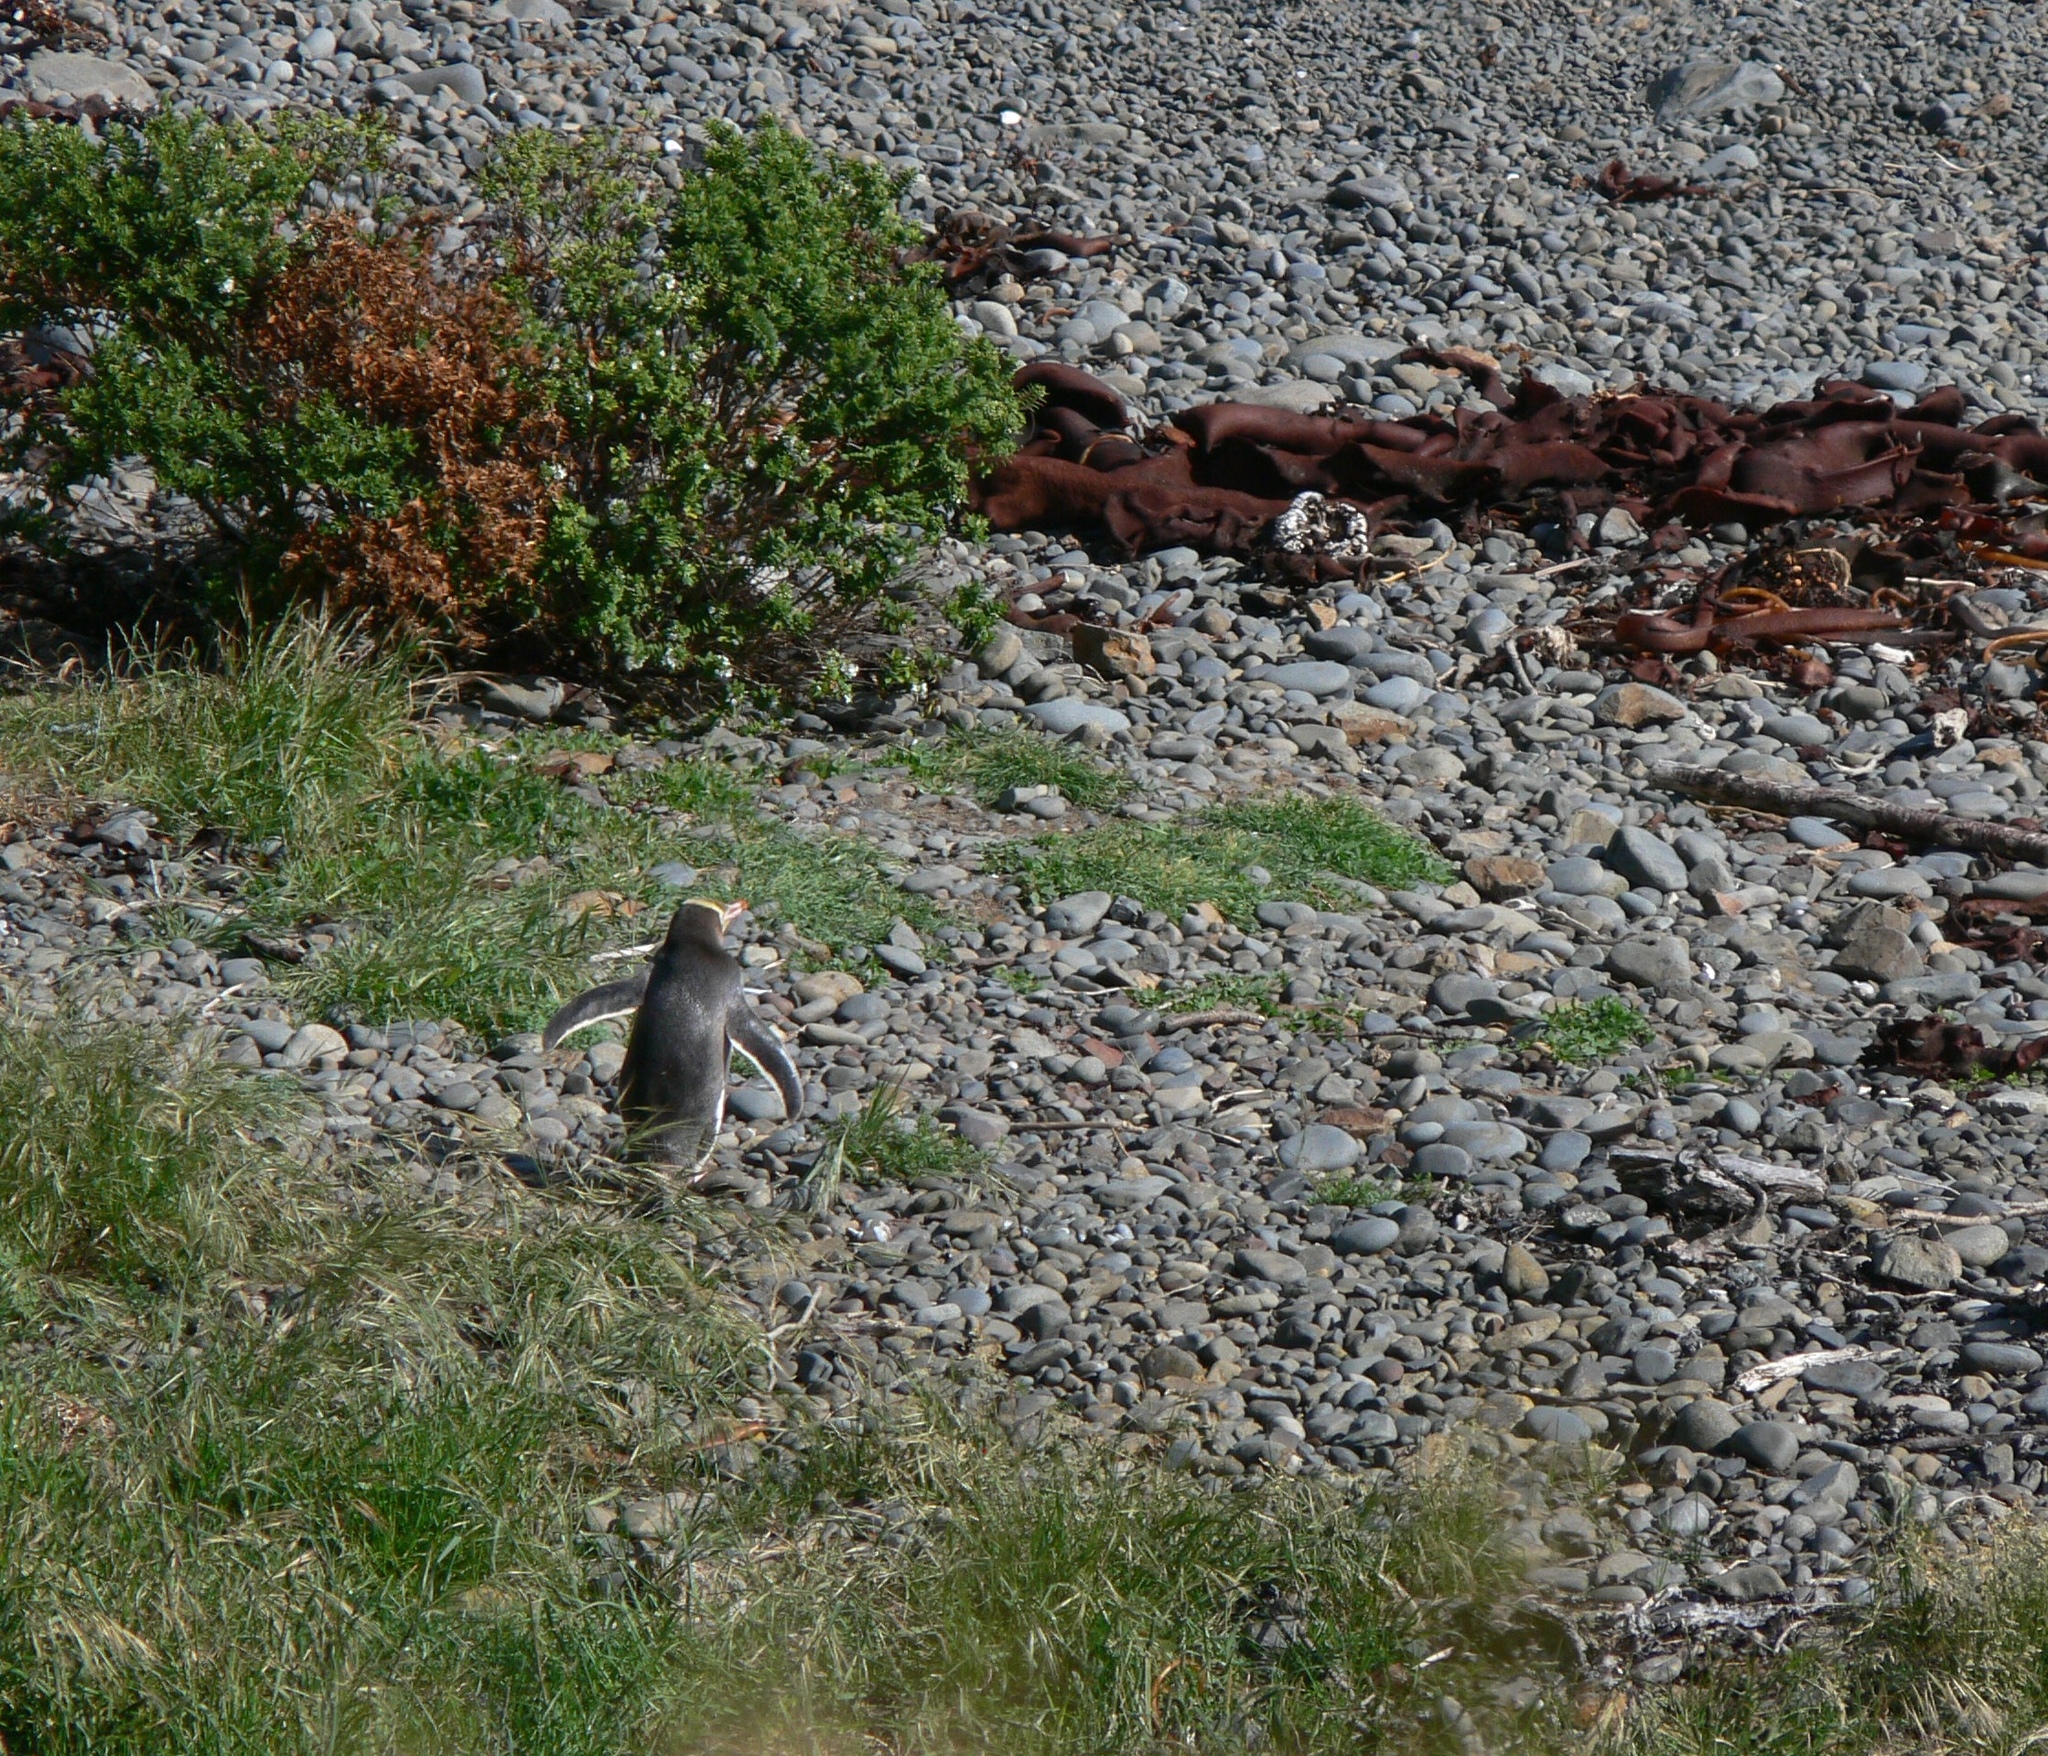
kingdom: Animalia
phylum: Chordata
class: Aves
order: Sphenisciformes
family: Spheniscidae
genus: Megadyptes
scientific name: Megadyptes antipodes
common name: Yellow-eyed penguin
